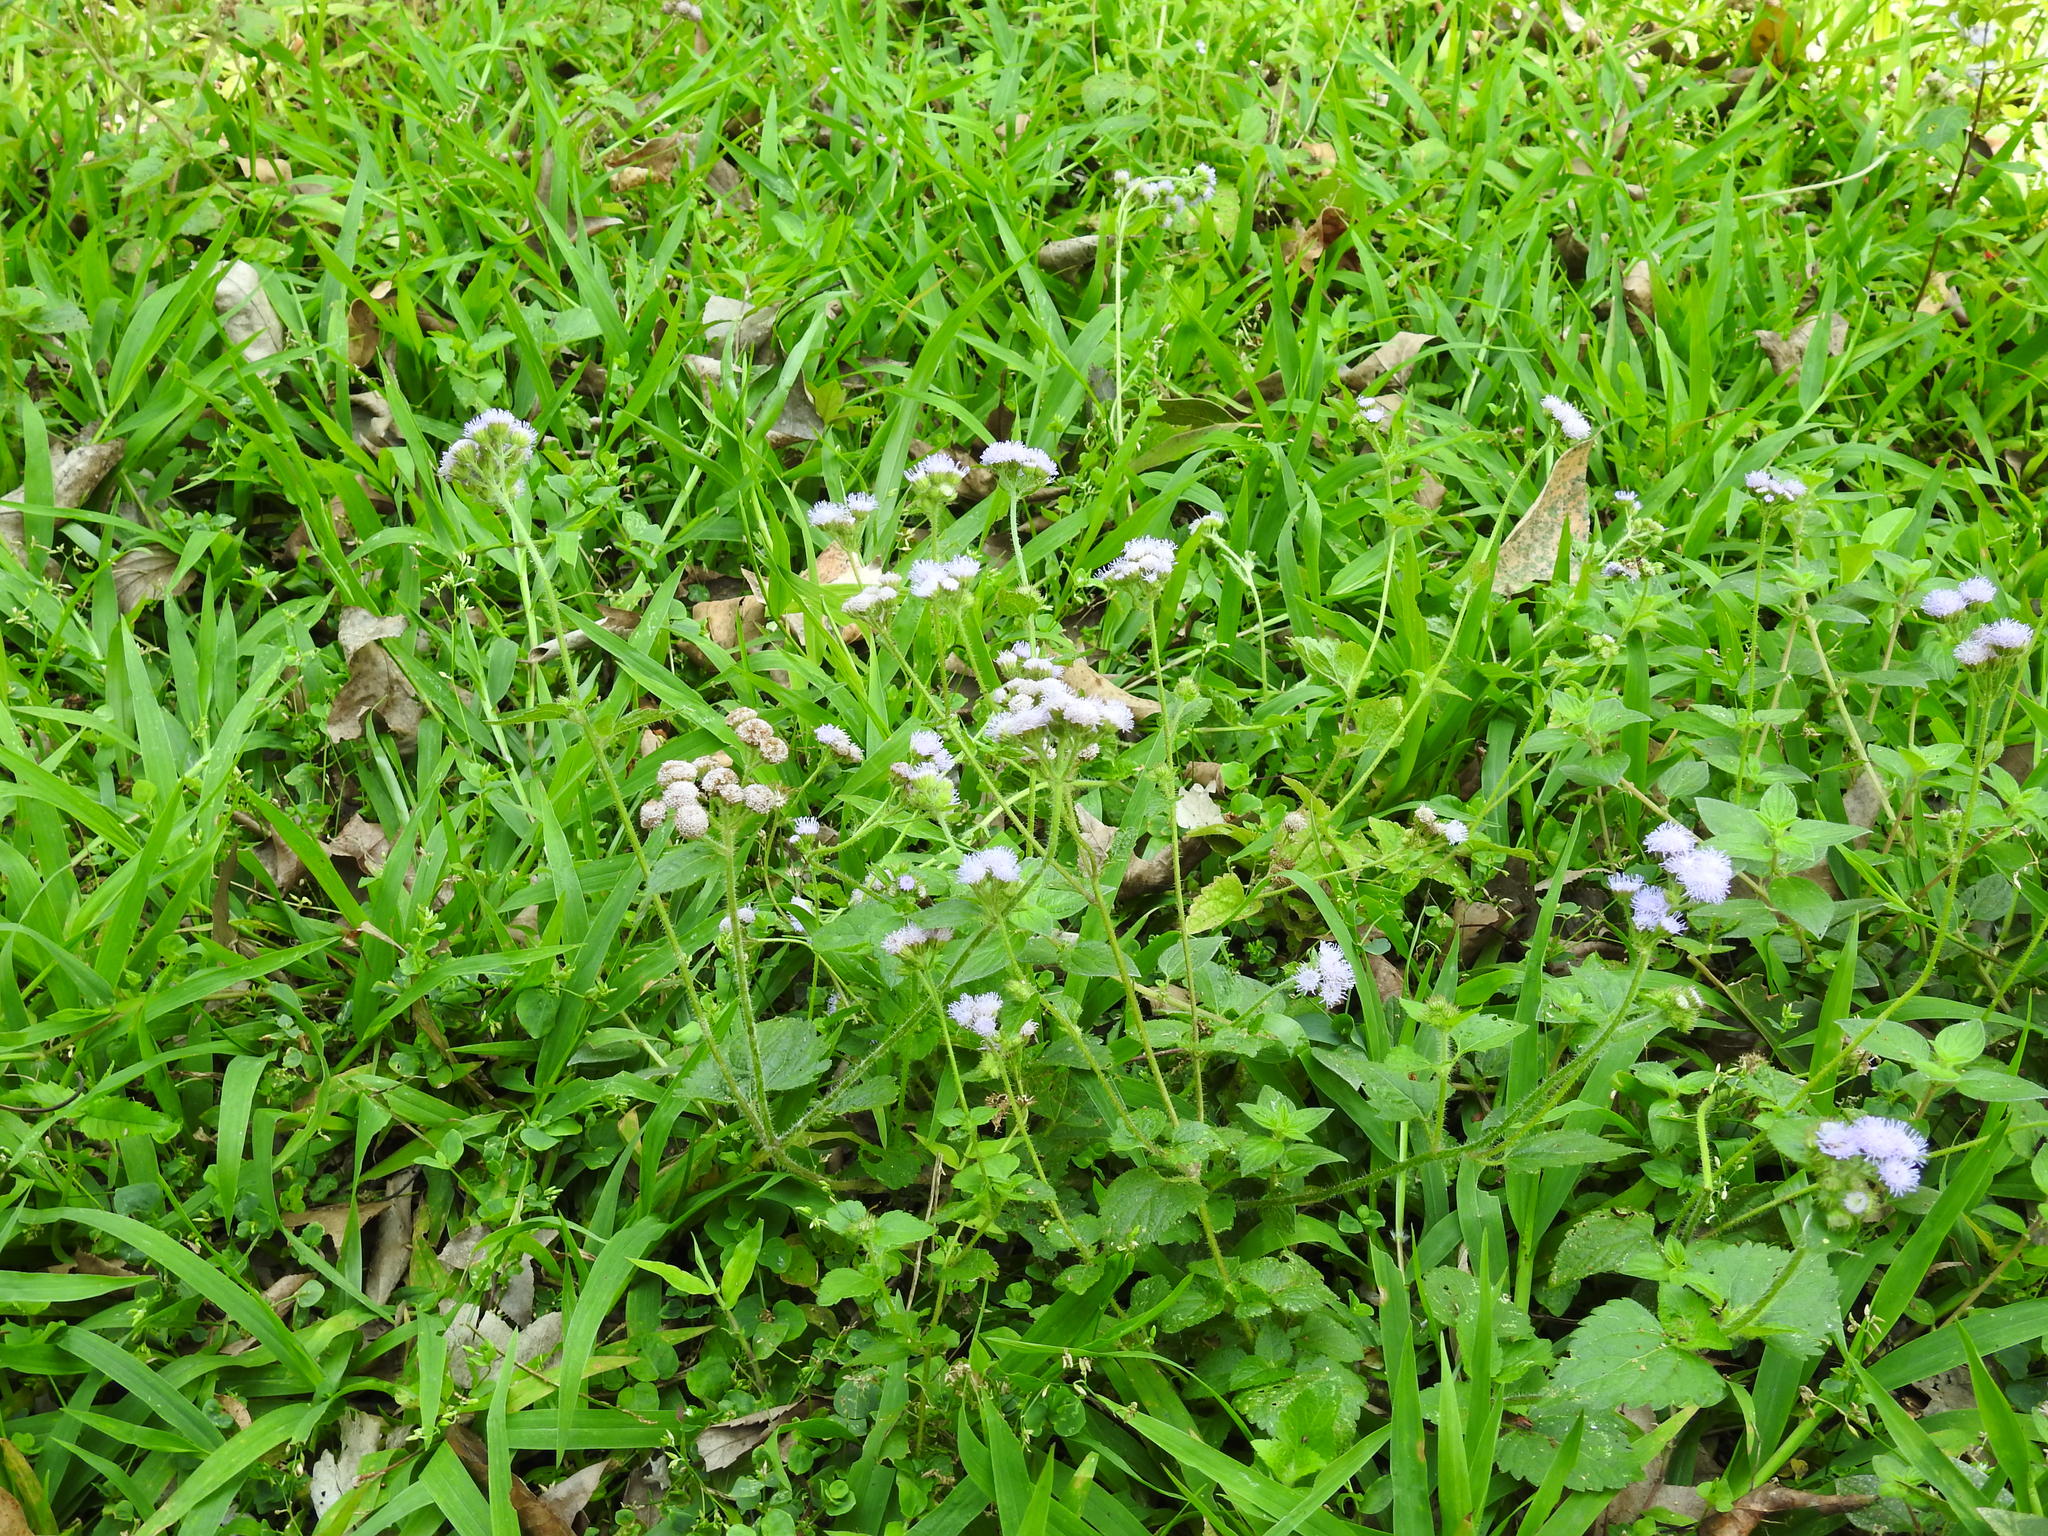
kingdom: Plantae
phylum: Tracheophyta
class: Magnoliopsida
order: Asterales
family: Asteraceae
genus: Ageratum
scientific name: Ageratum houstonianum
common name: Bluemink
